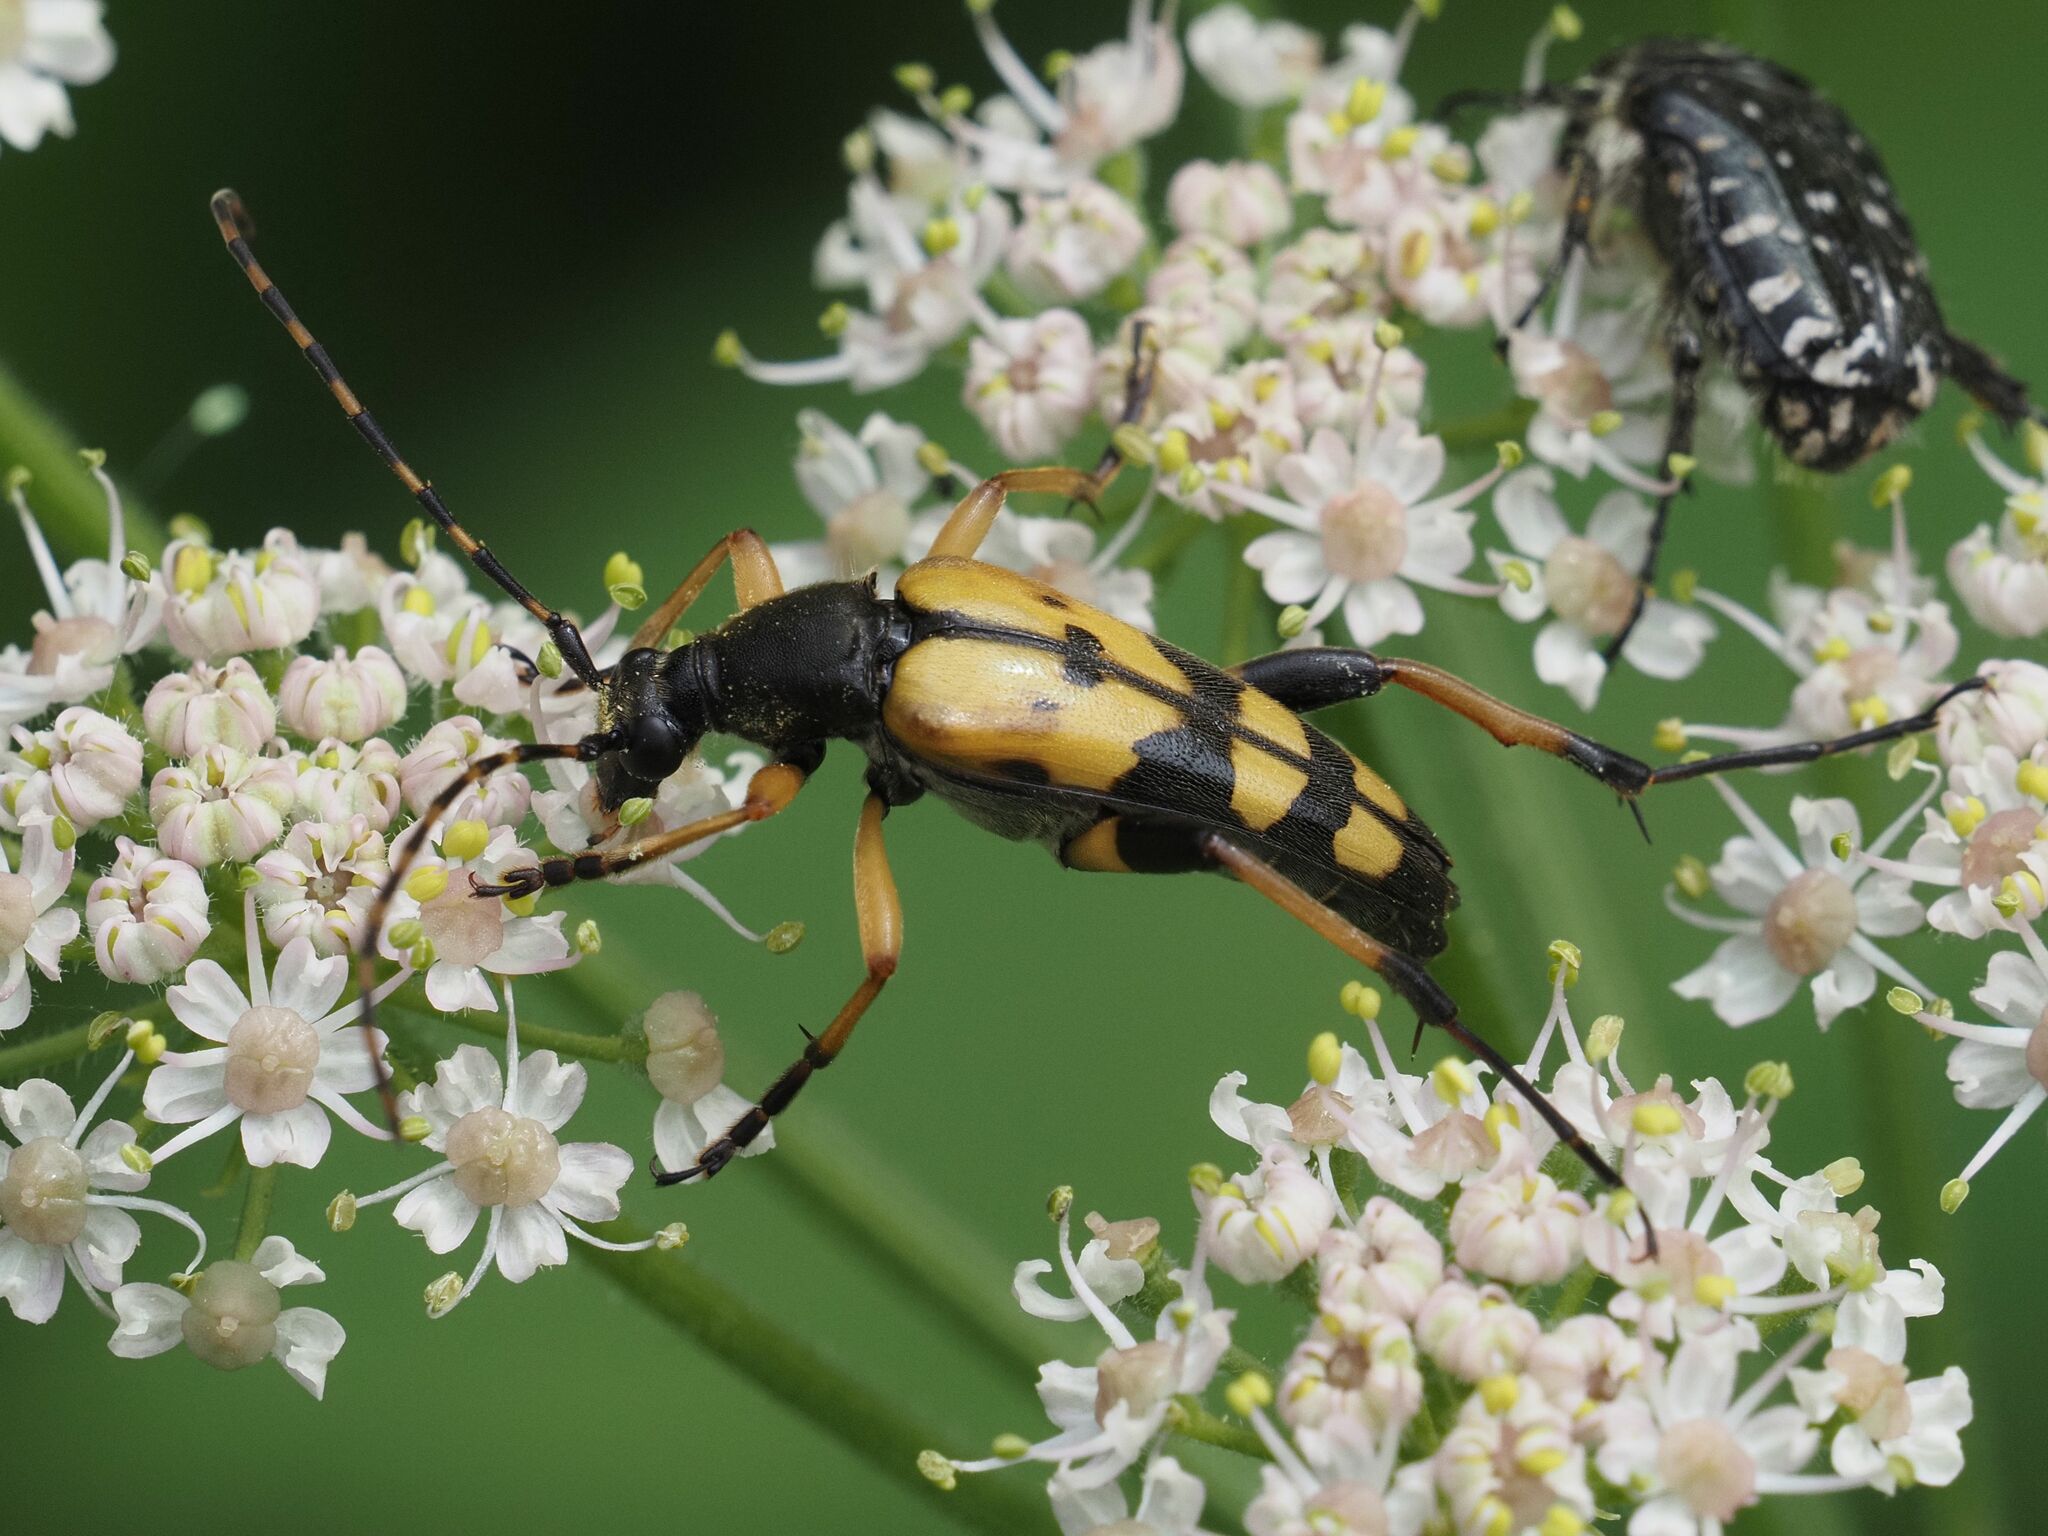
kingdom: Animalia
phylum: Arthropoda
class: Insecta
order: Coleoptera
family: Cerambycidae
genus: Rutpela
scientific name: Rutpela maculata
